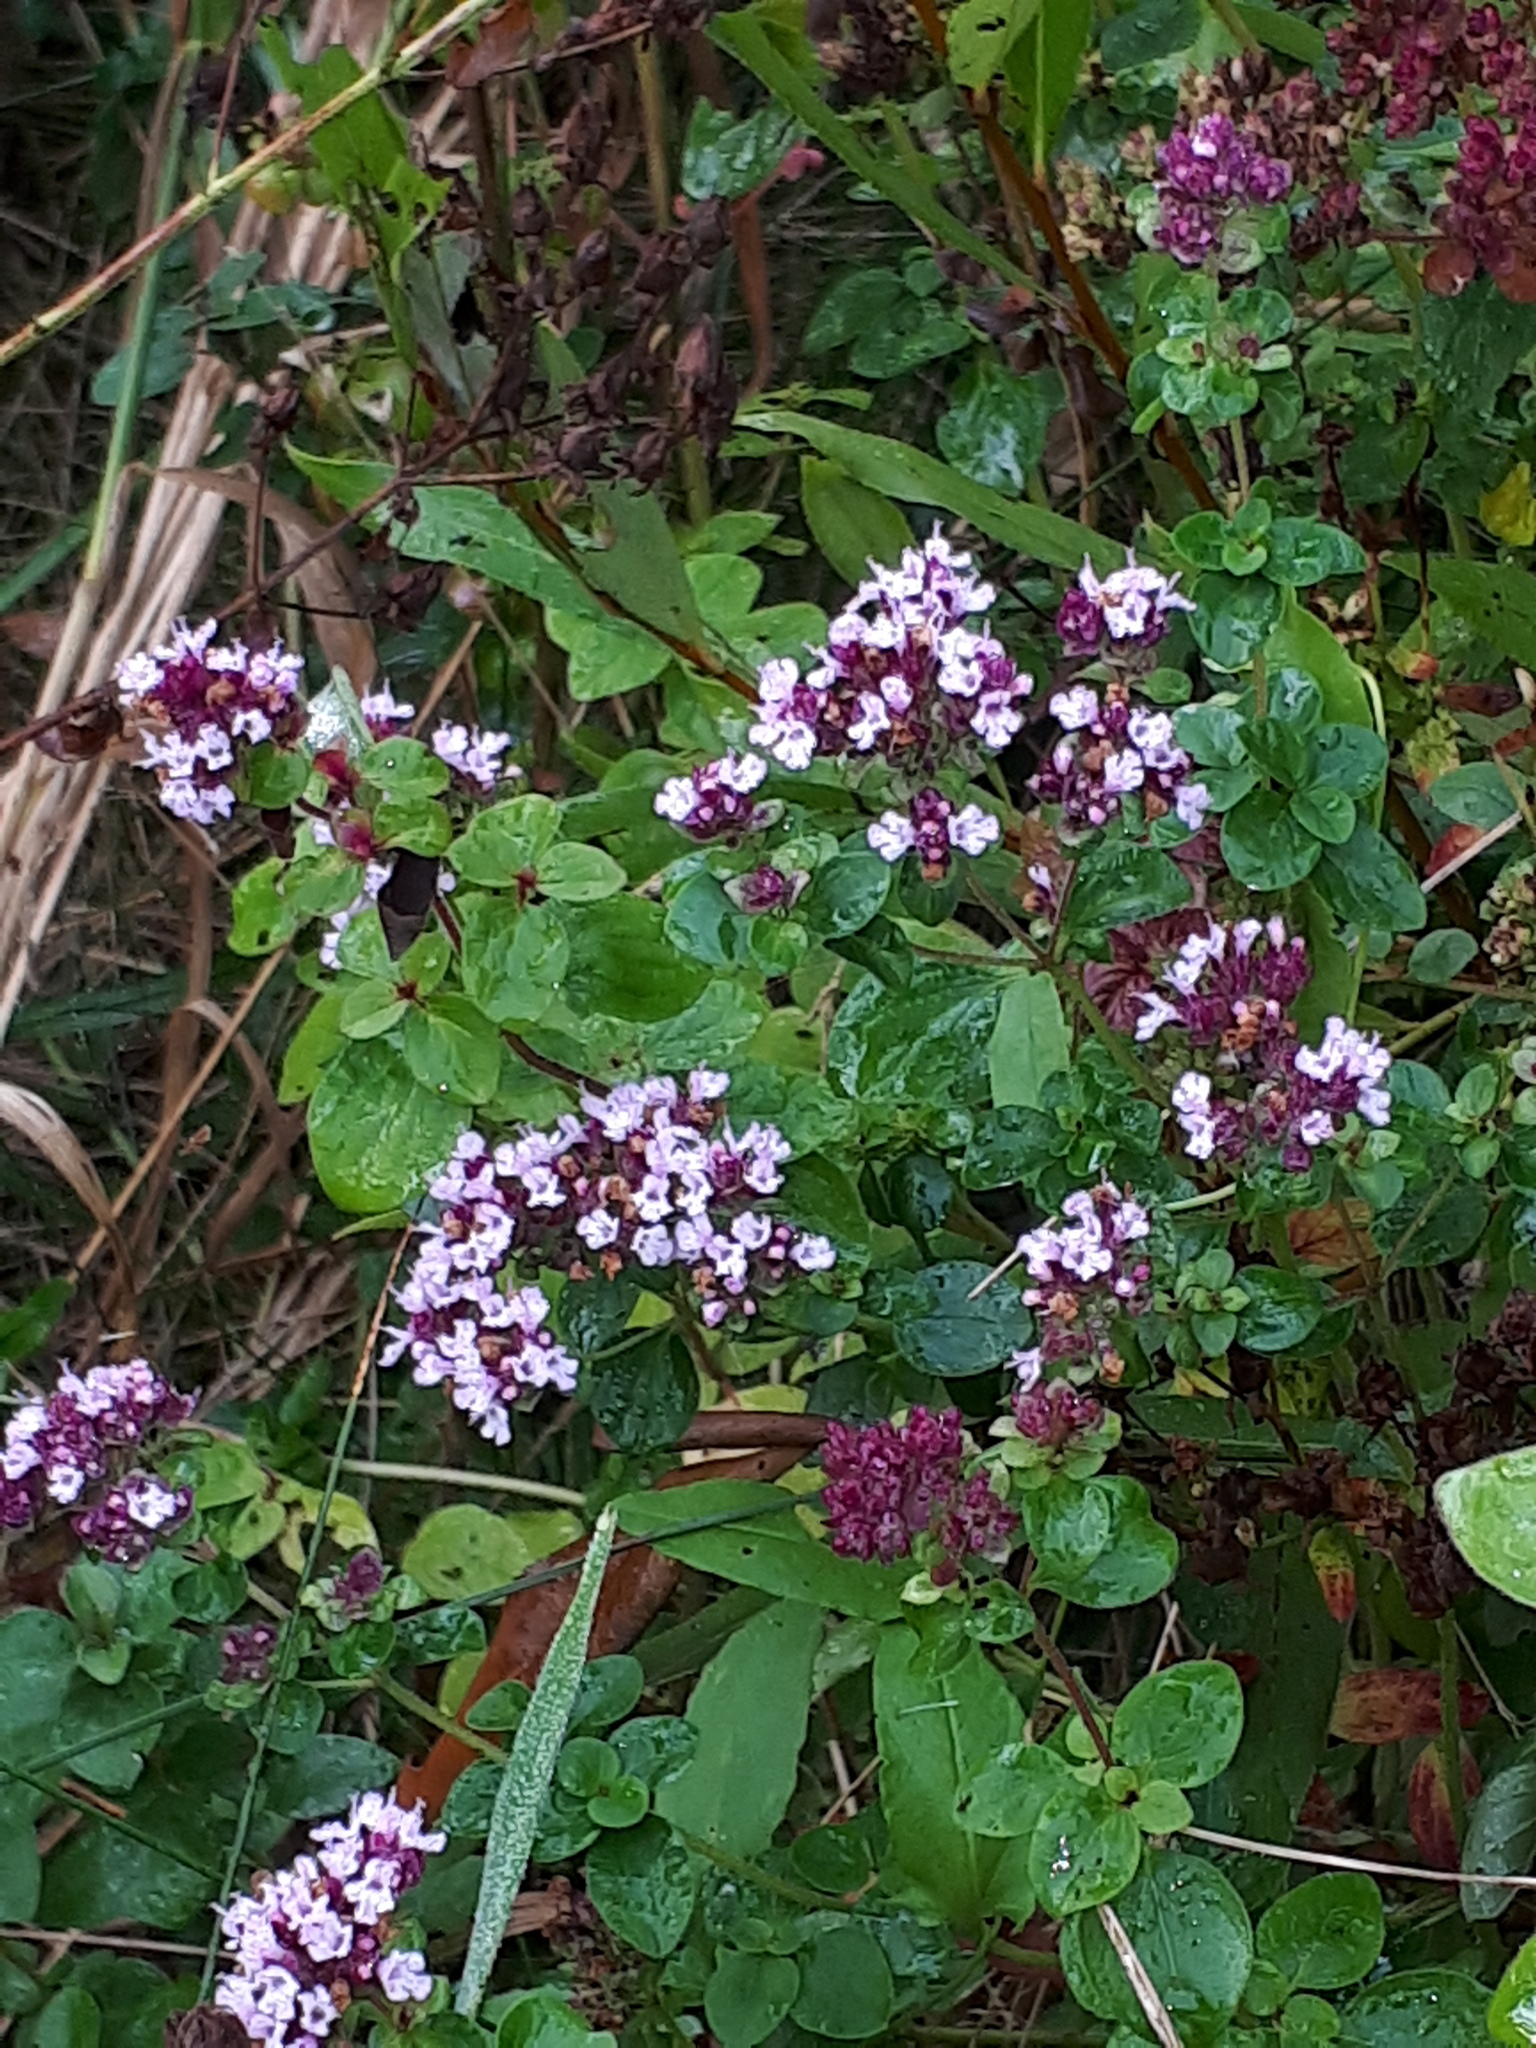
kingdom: Plantae
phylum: Tracheophyta
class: Magnoliopsida
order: Lamiales
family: Lamiaceae
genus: Origanum
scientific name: Origanum vulgare
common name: Wild marjoram
